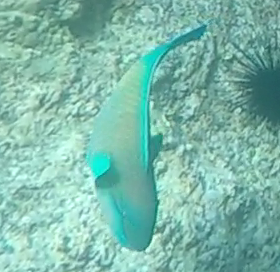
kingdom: Animalia
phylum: Chordata
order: Perciformes
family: Scaridae
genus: Chlorurus
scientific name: Chlorurus spilurus
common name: Bullethead parrotfish
